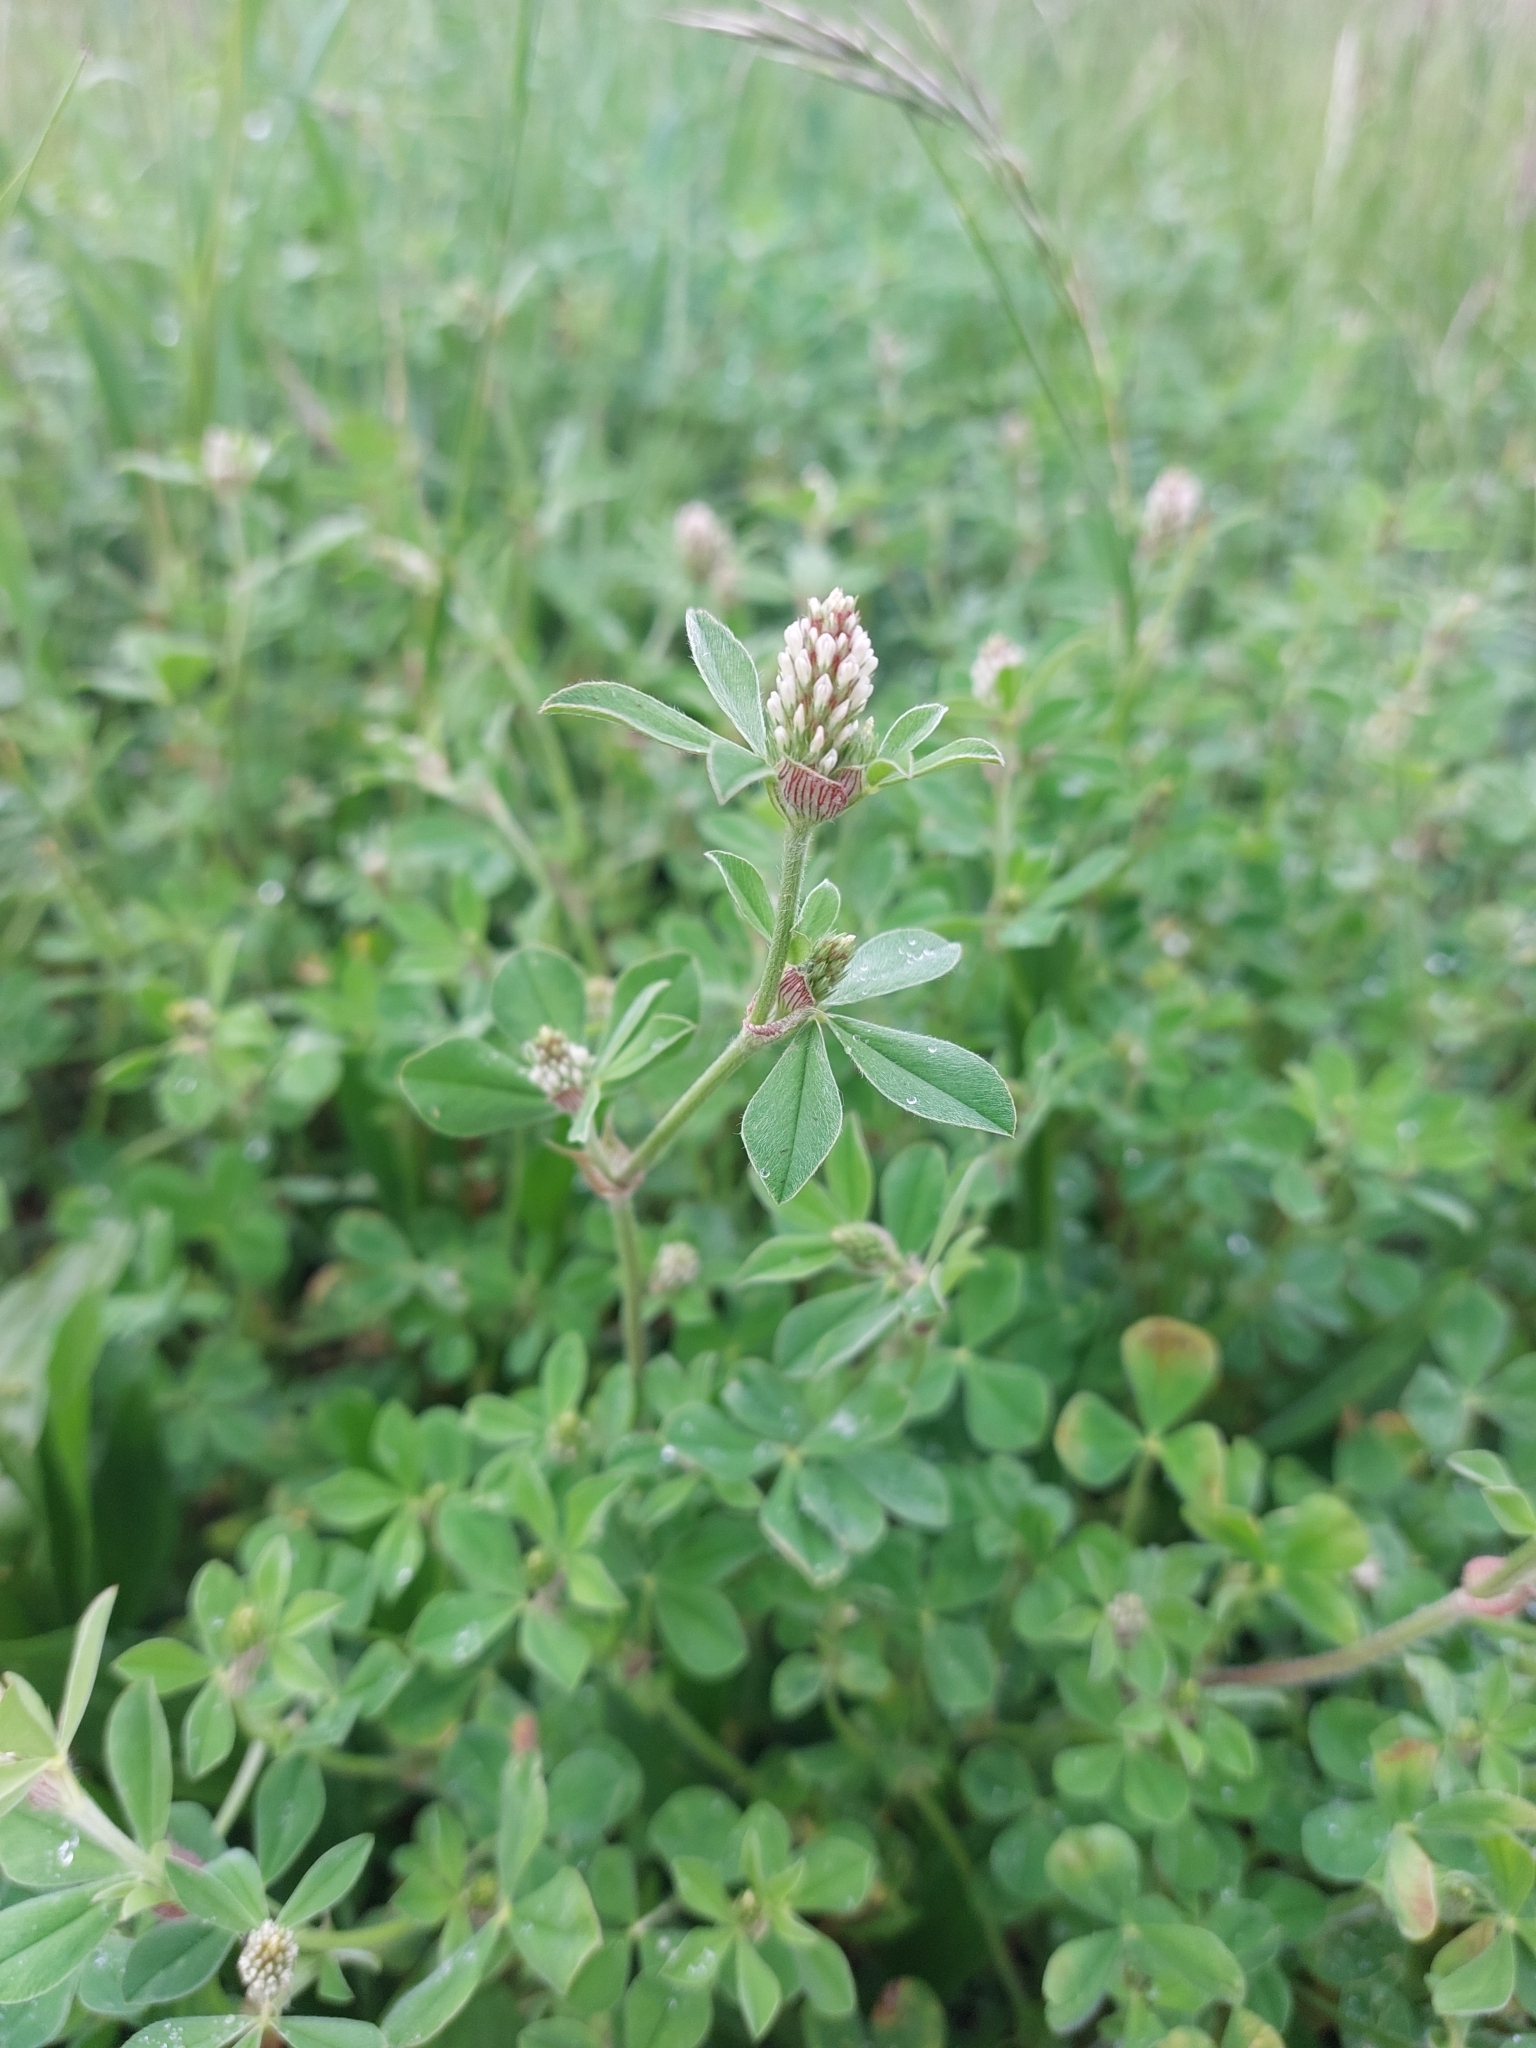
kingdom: Plantae
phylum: Tracheophyta
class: Magnoliopsida
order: Fabales
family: Fabaceae
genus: Trifolium
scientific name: Trifolium striatum
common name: Knotted clover
